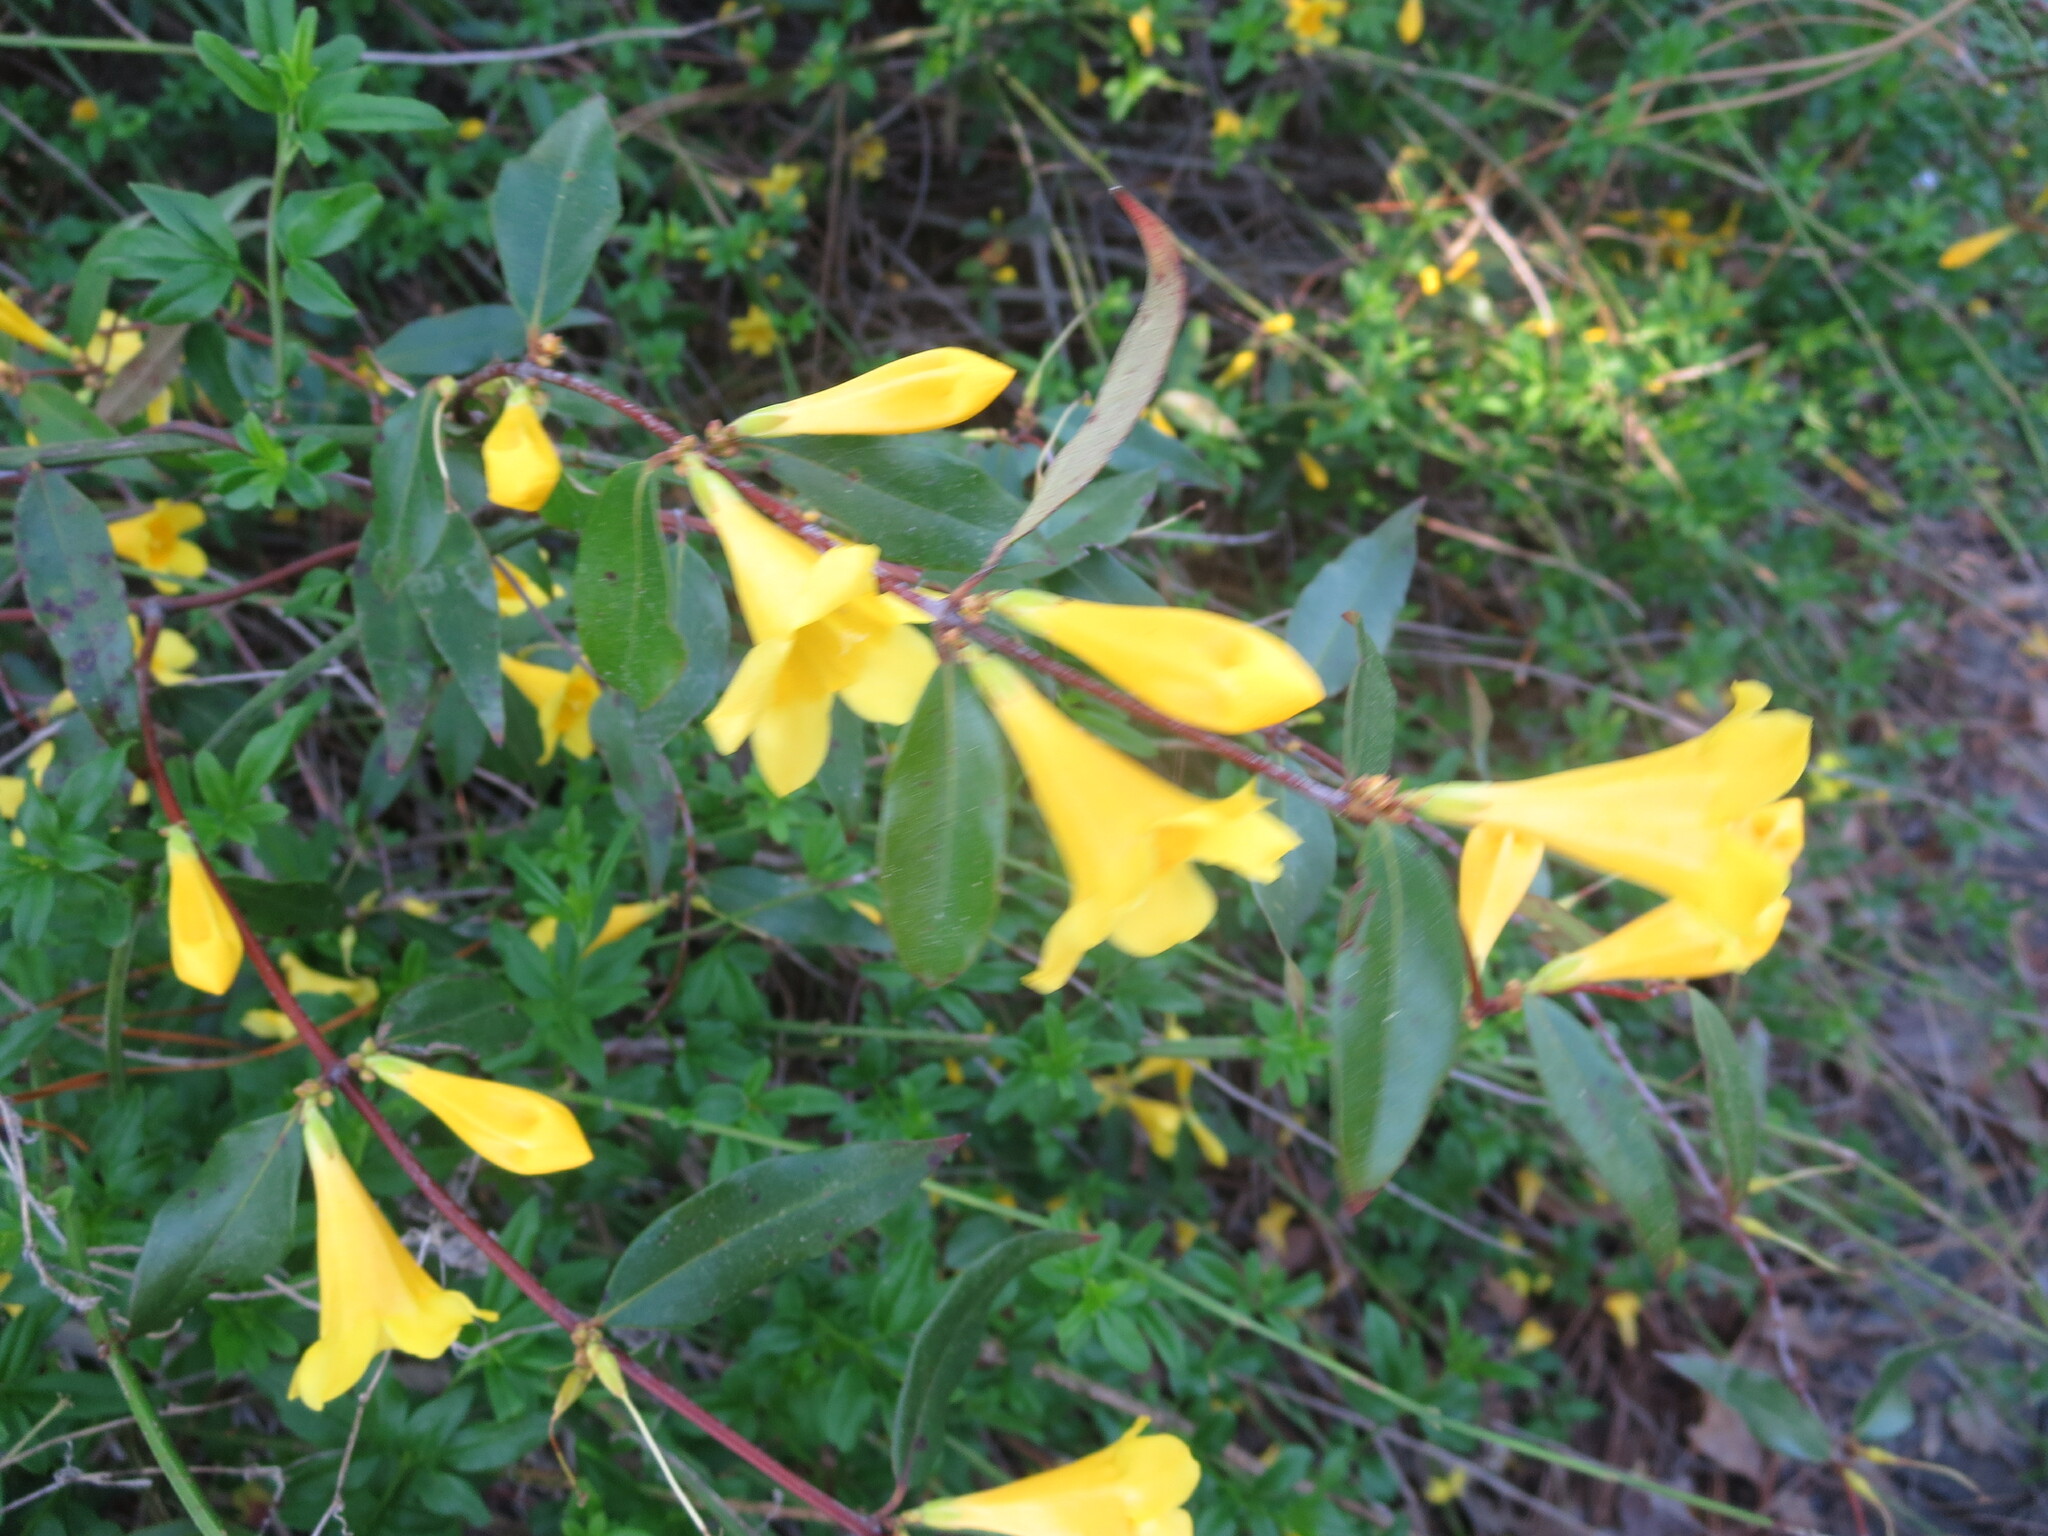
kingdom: Plantae
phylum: Tracheophyta
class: Magnoliopsida
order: Gentianales
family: Gelsemiaceae
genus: Gelsemium
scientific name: Gelsemium sempervirens
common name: Carolina-jasmine
